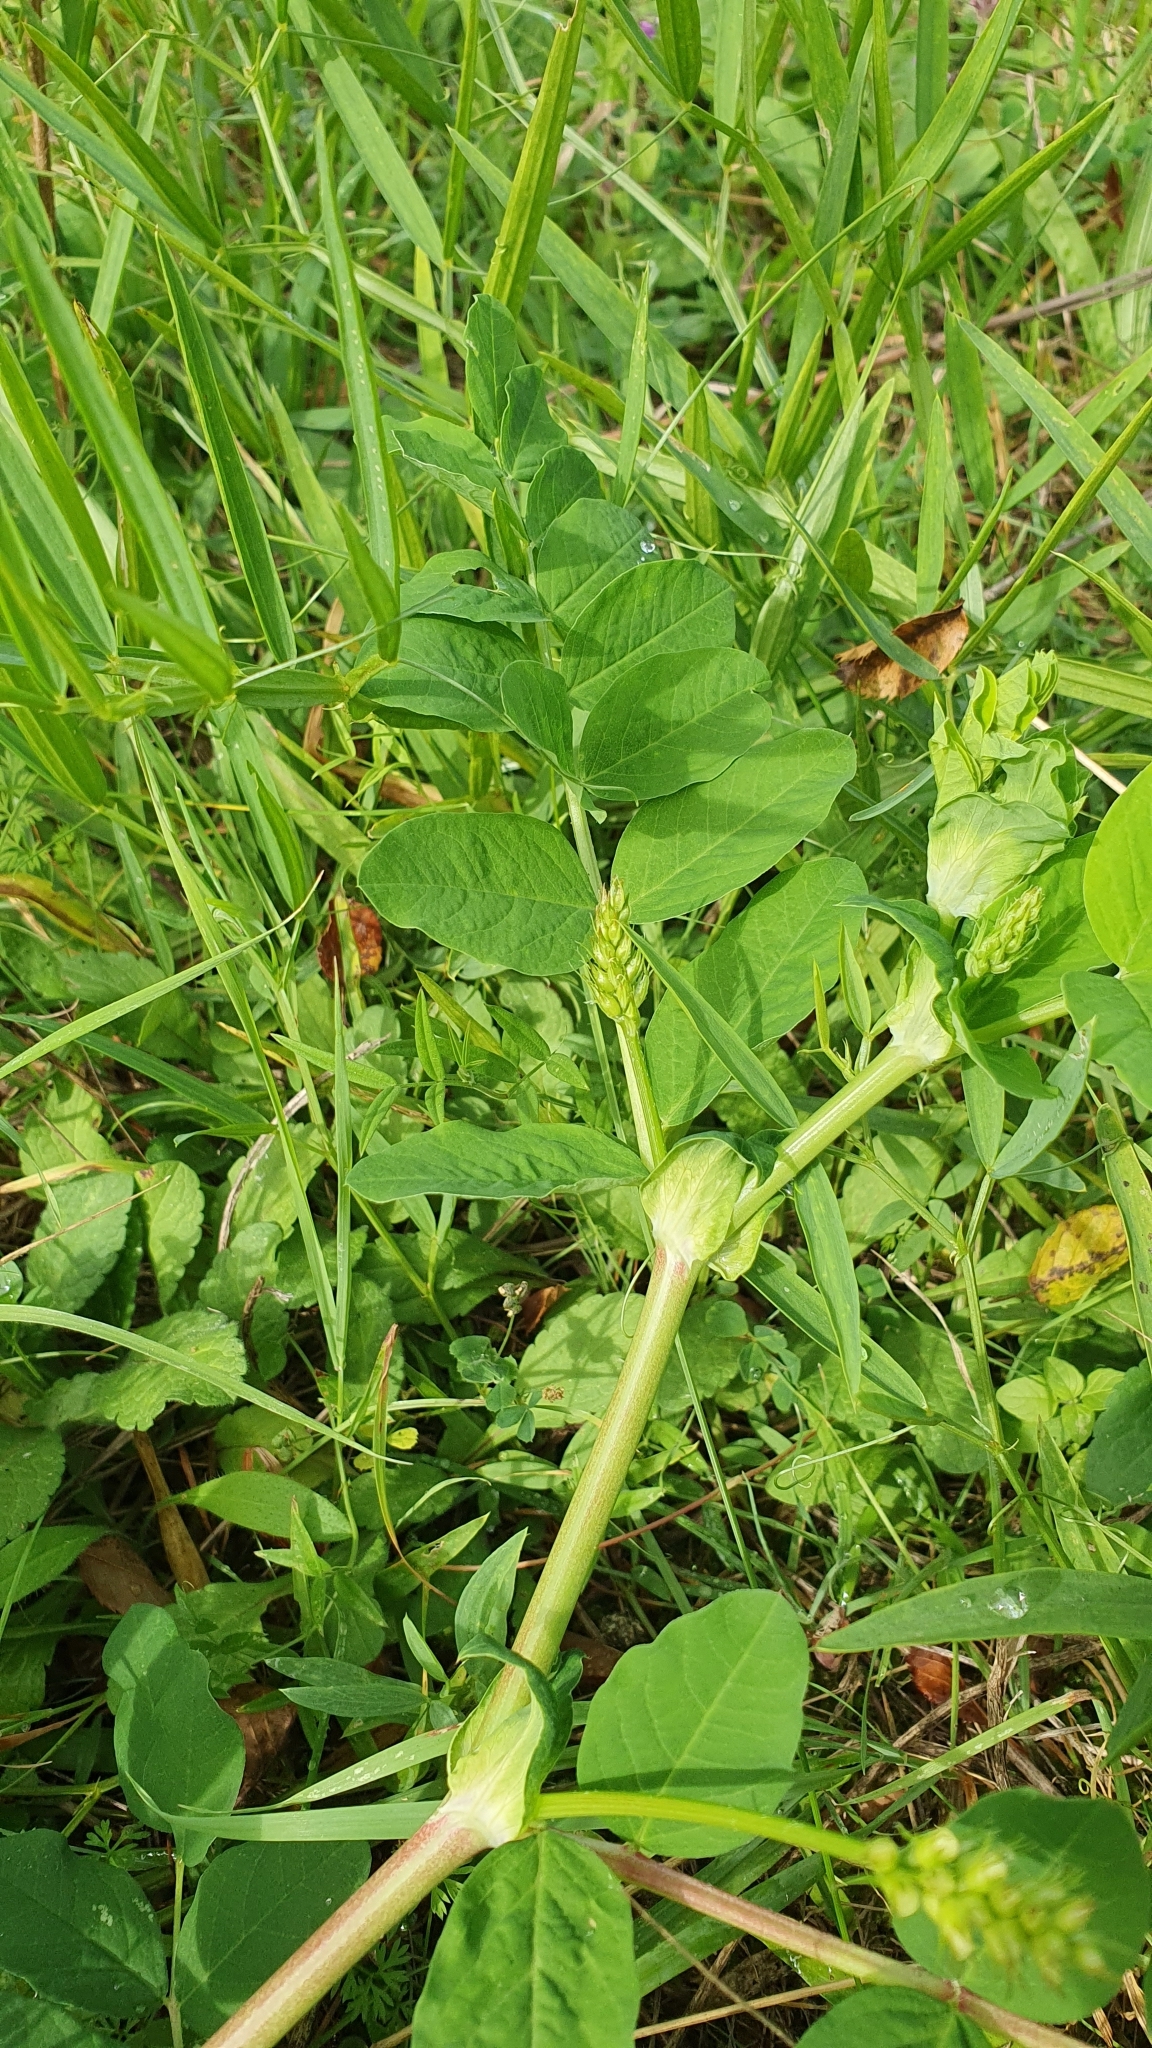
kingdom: Plantae
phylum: Tracheophyta
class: Magnoliopsida
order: Fabales
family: Fabaceae
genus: Astragalus
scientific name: Astragalus glycyphyllos
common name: Wild liquorice
